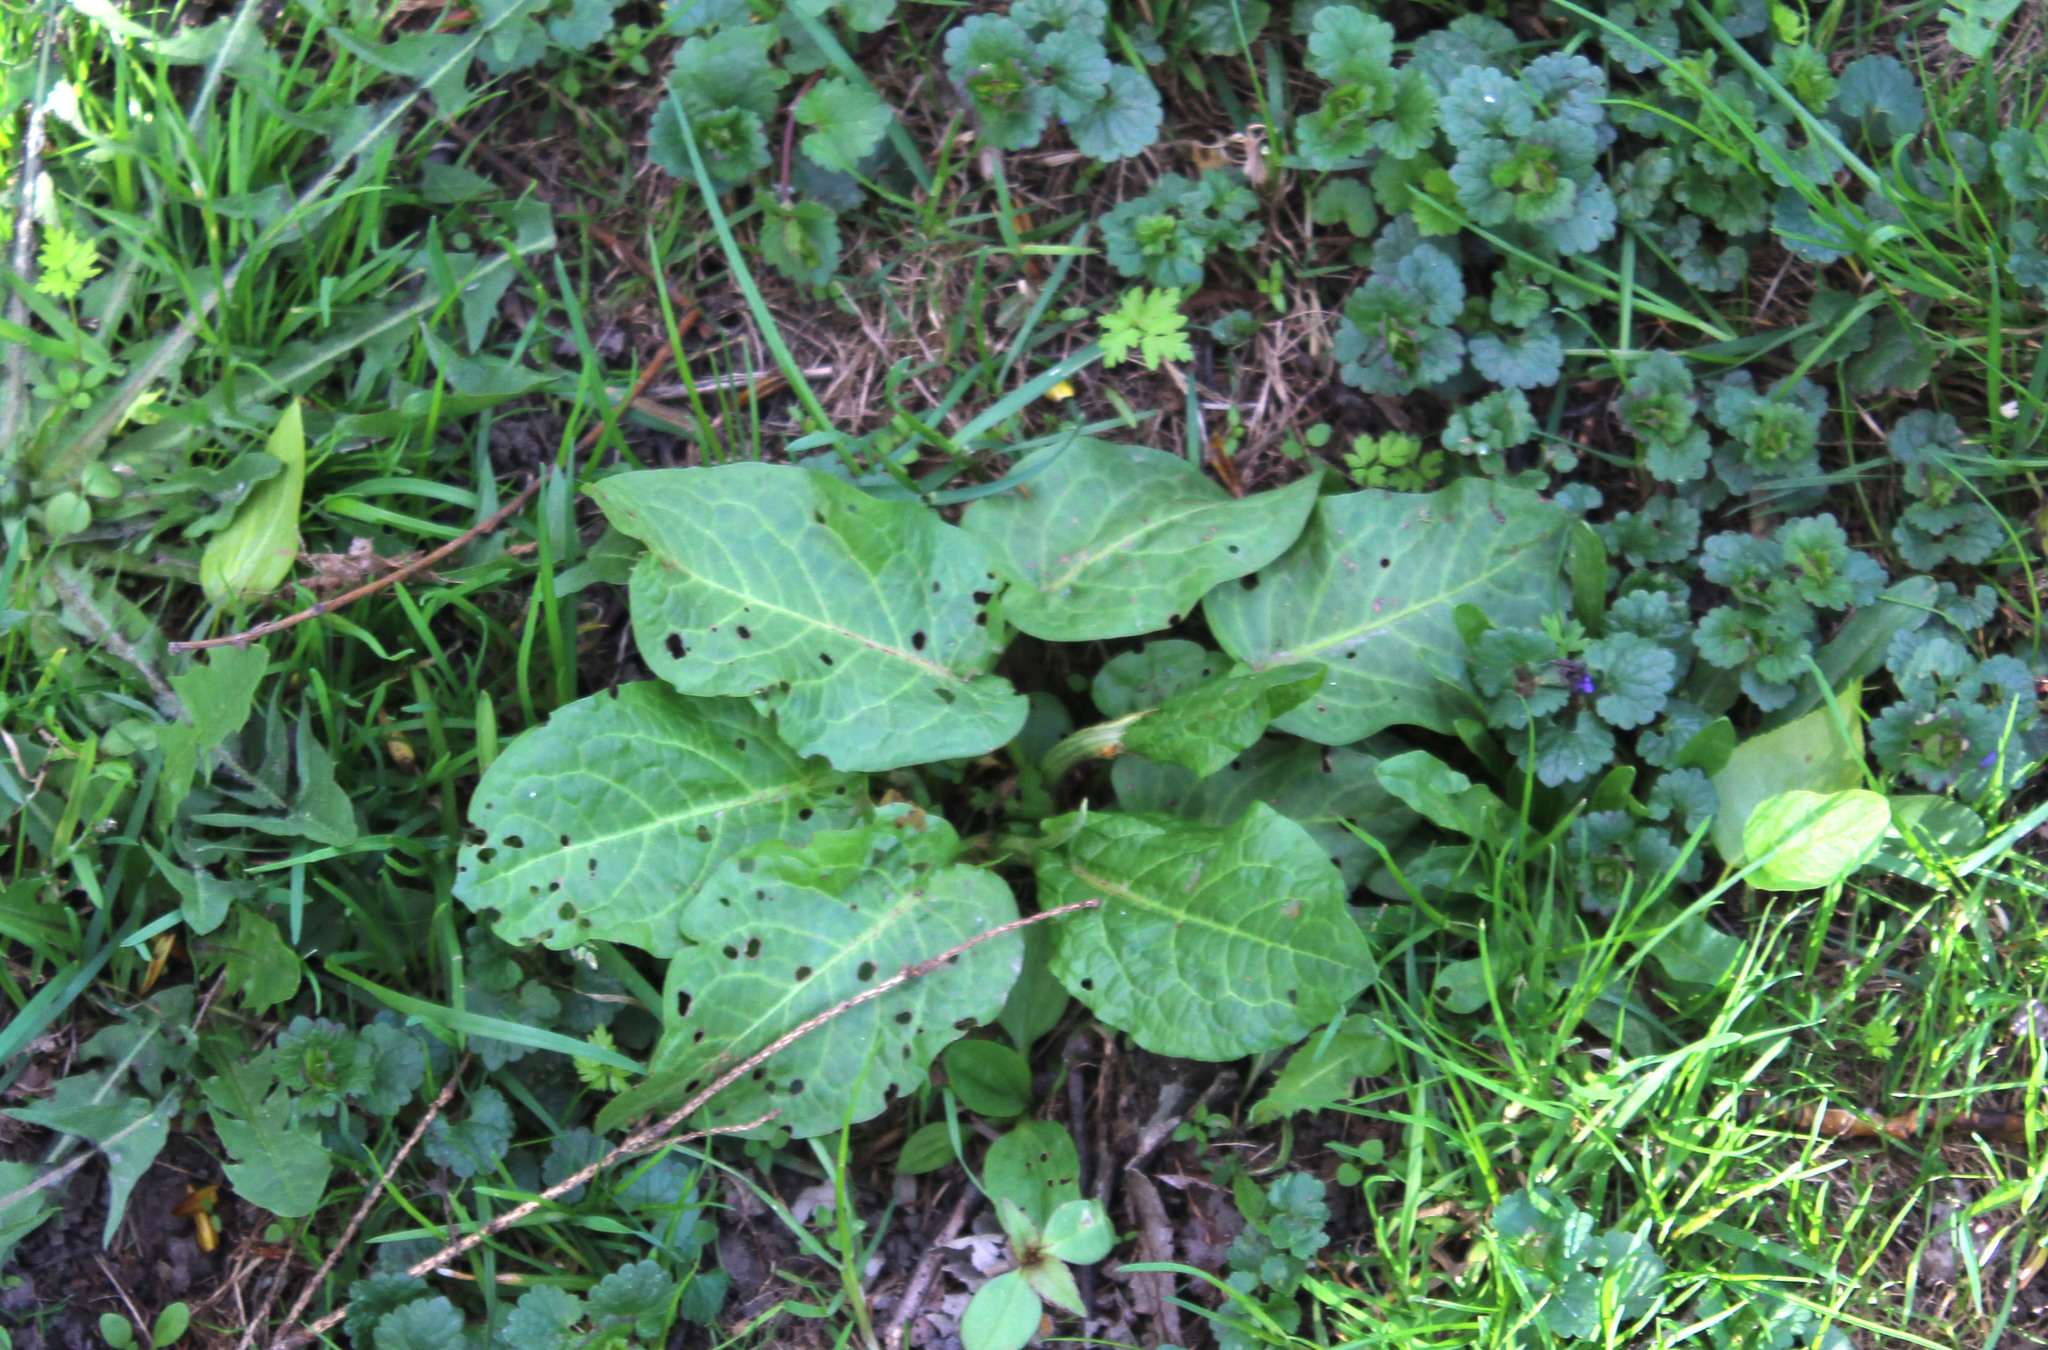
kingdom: Plantae
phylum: Tracheophyta
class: Magnoliopsida
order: Caryophyllales
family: Polygonaceae
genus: Rumex
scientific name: Rumex obtusifolius
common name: Bitter dock
